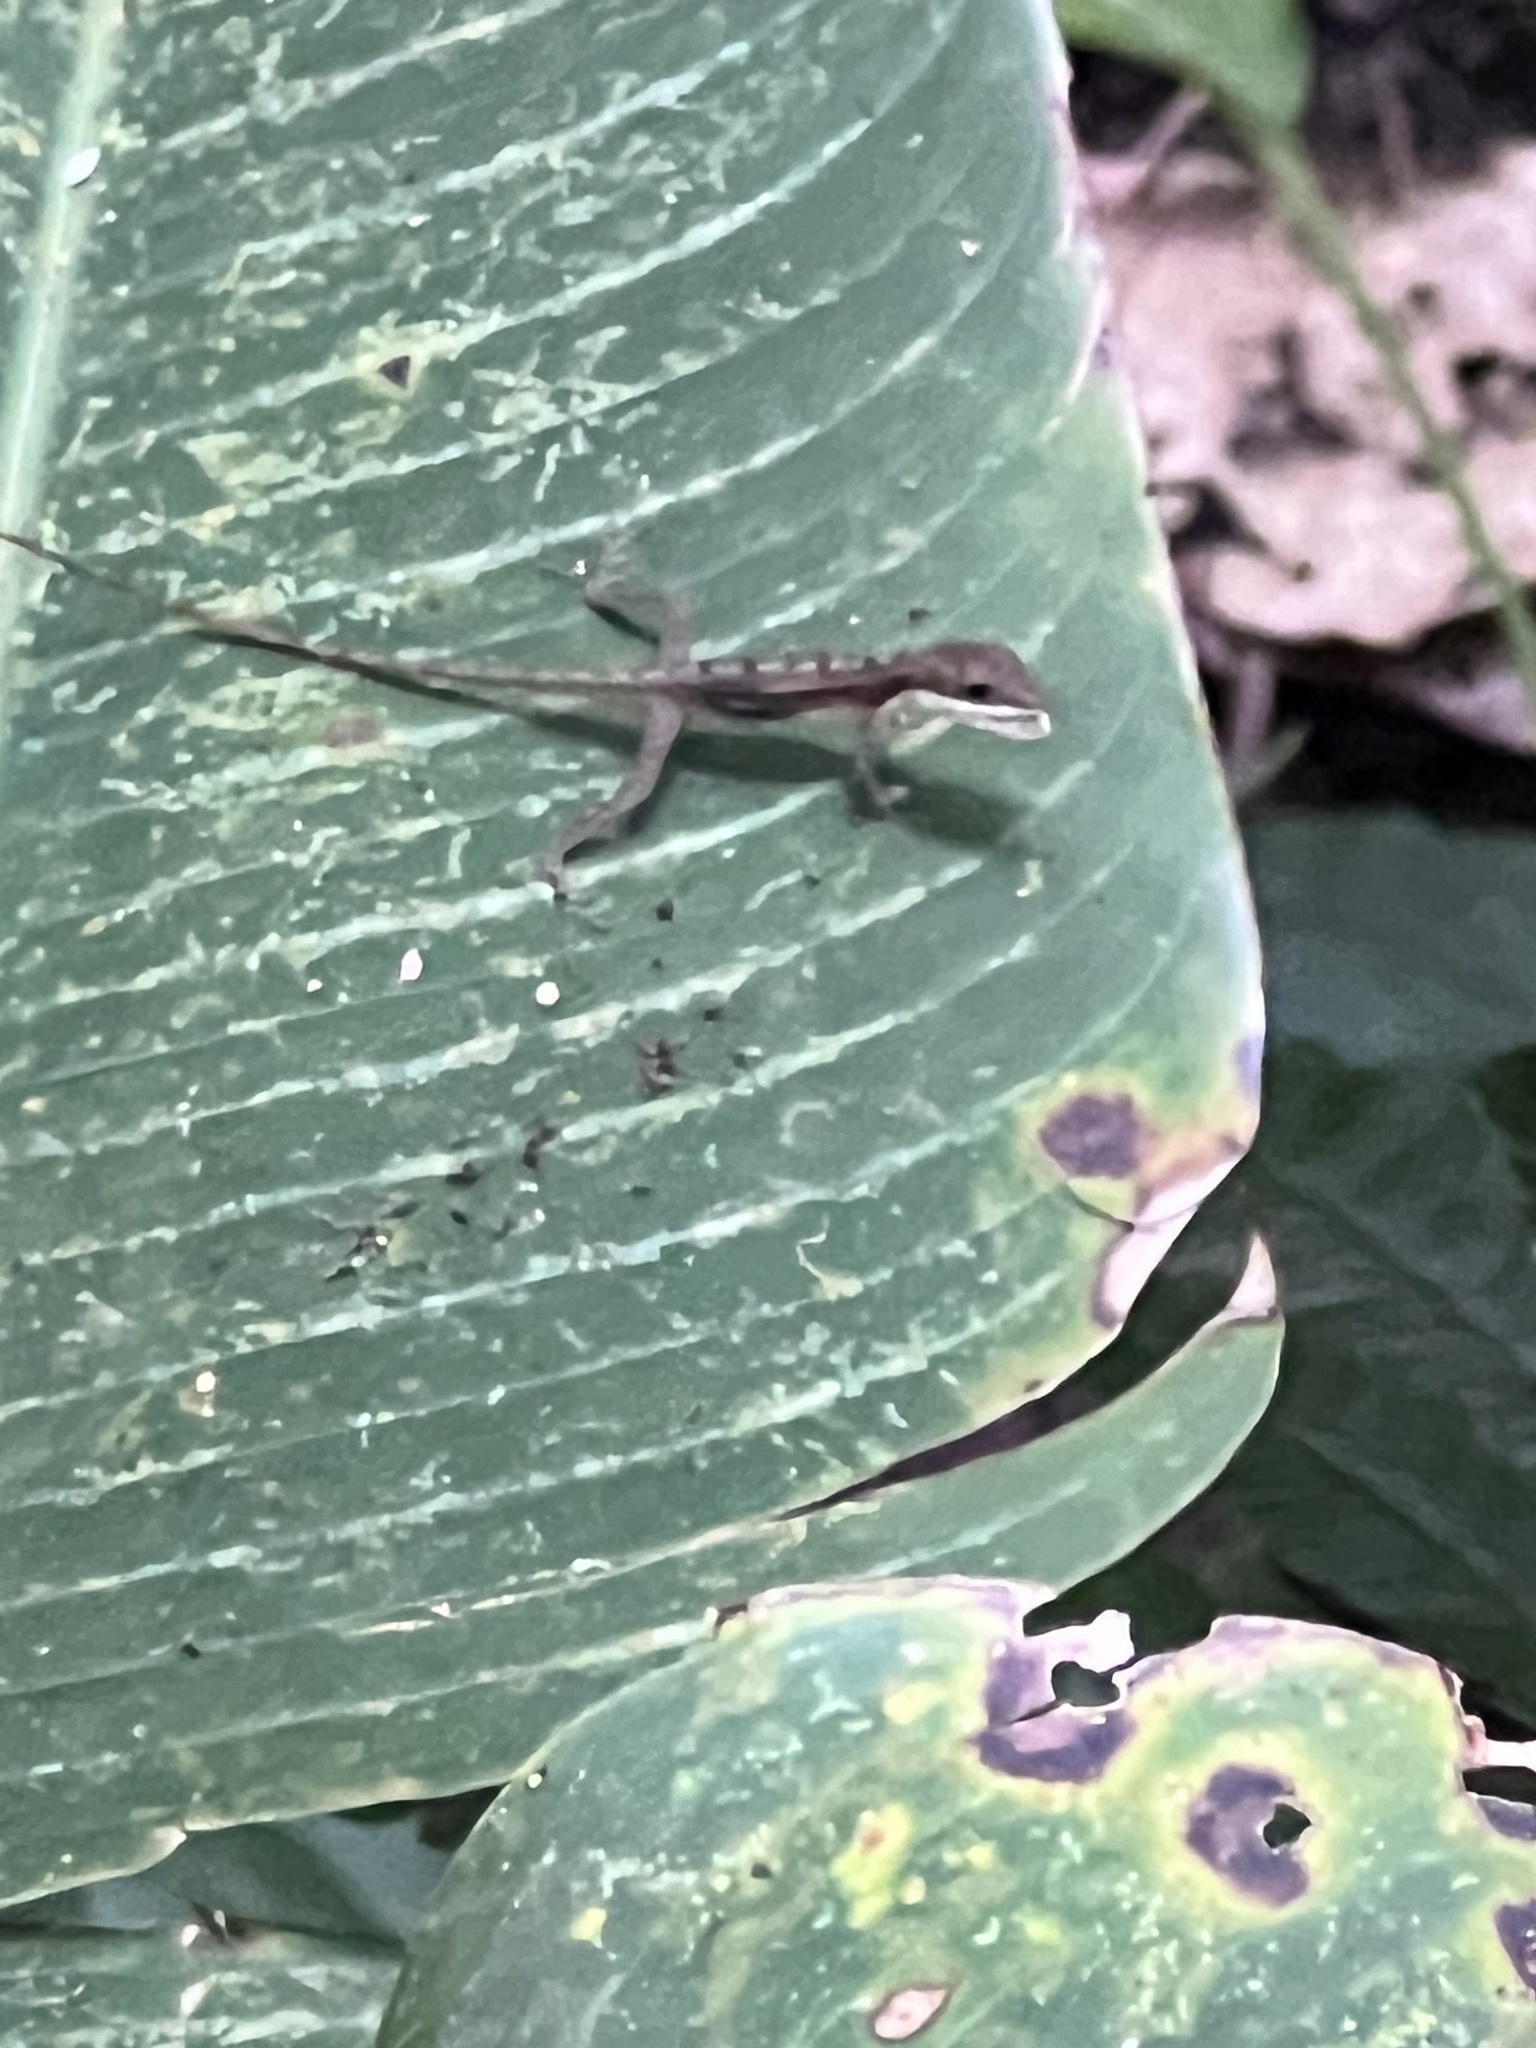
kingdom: Animalia
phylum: Chordata
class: Squamata
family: Dactyloidae
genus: Anolis
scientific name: Anolis limifrons
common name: Border anole
